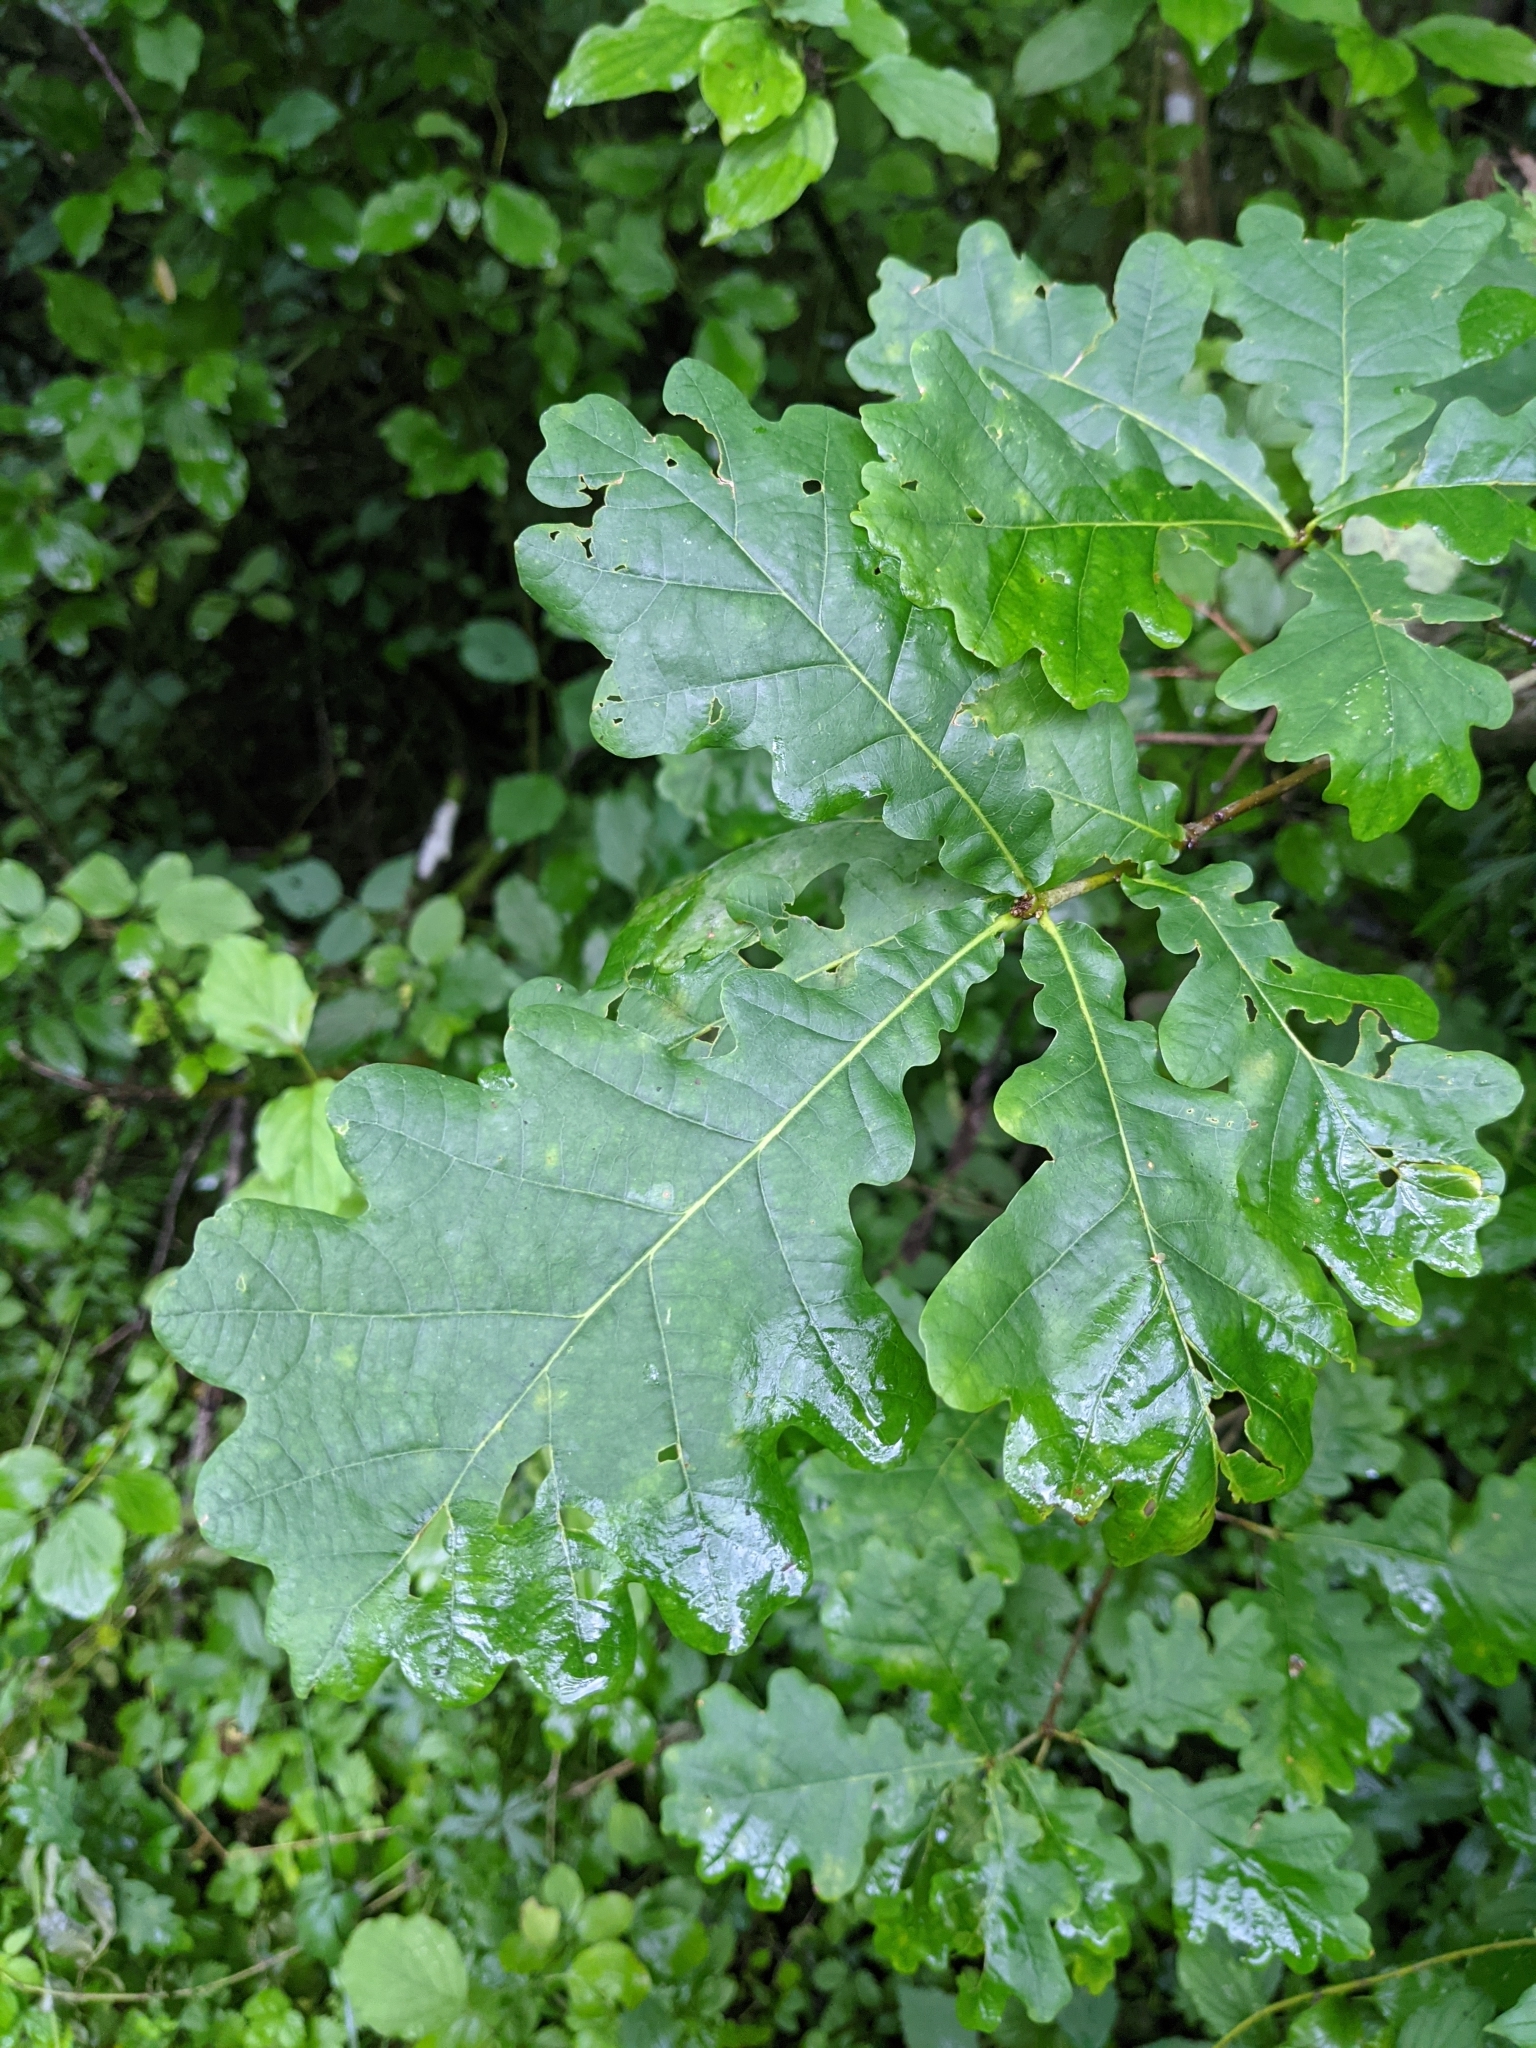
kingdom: Plantae
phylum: Tracheophyta
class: Magnoliopsida
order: Fagales
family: Fagaceae
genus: Quercus
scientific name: Quercus robur
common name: Pedunculate oak
